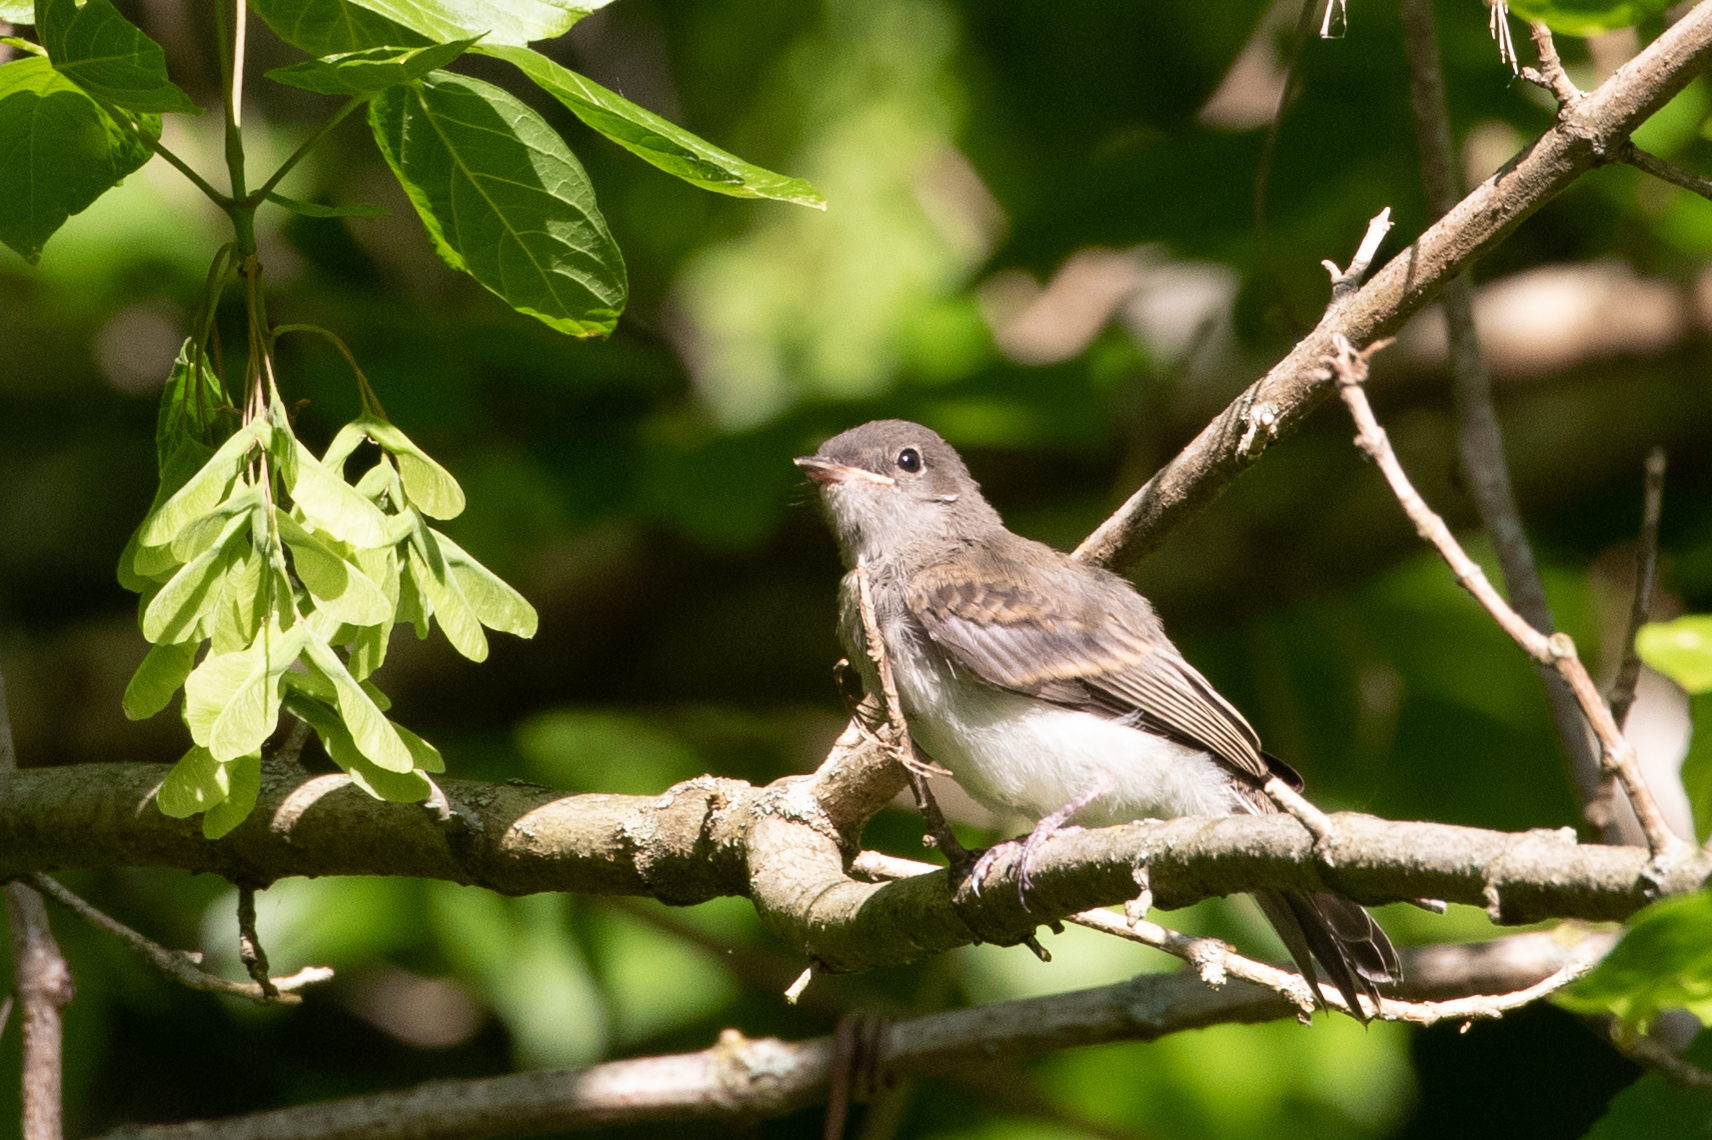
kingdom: Animalia
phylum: Chordata
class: Aves
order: Passeriformes
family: Tyrannidae
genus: Sayornis
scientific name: Sayornis phoebe
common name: Eastern phoebe
